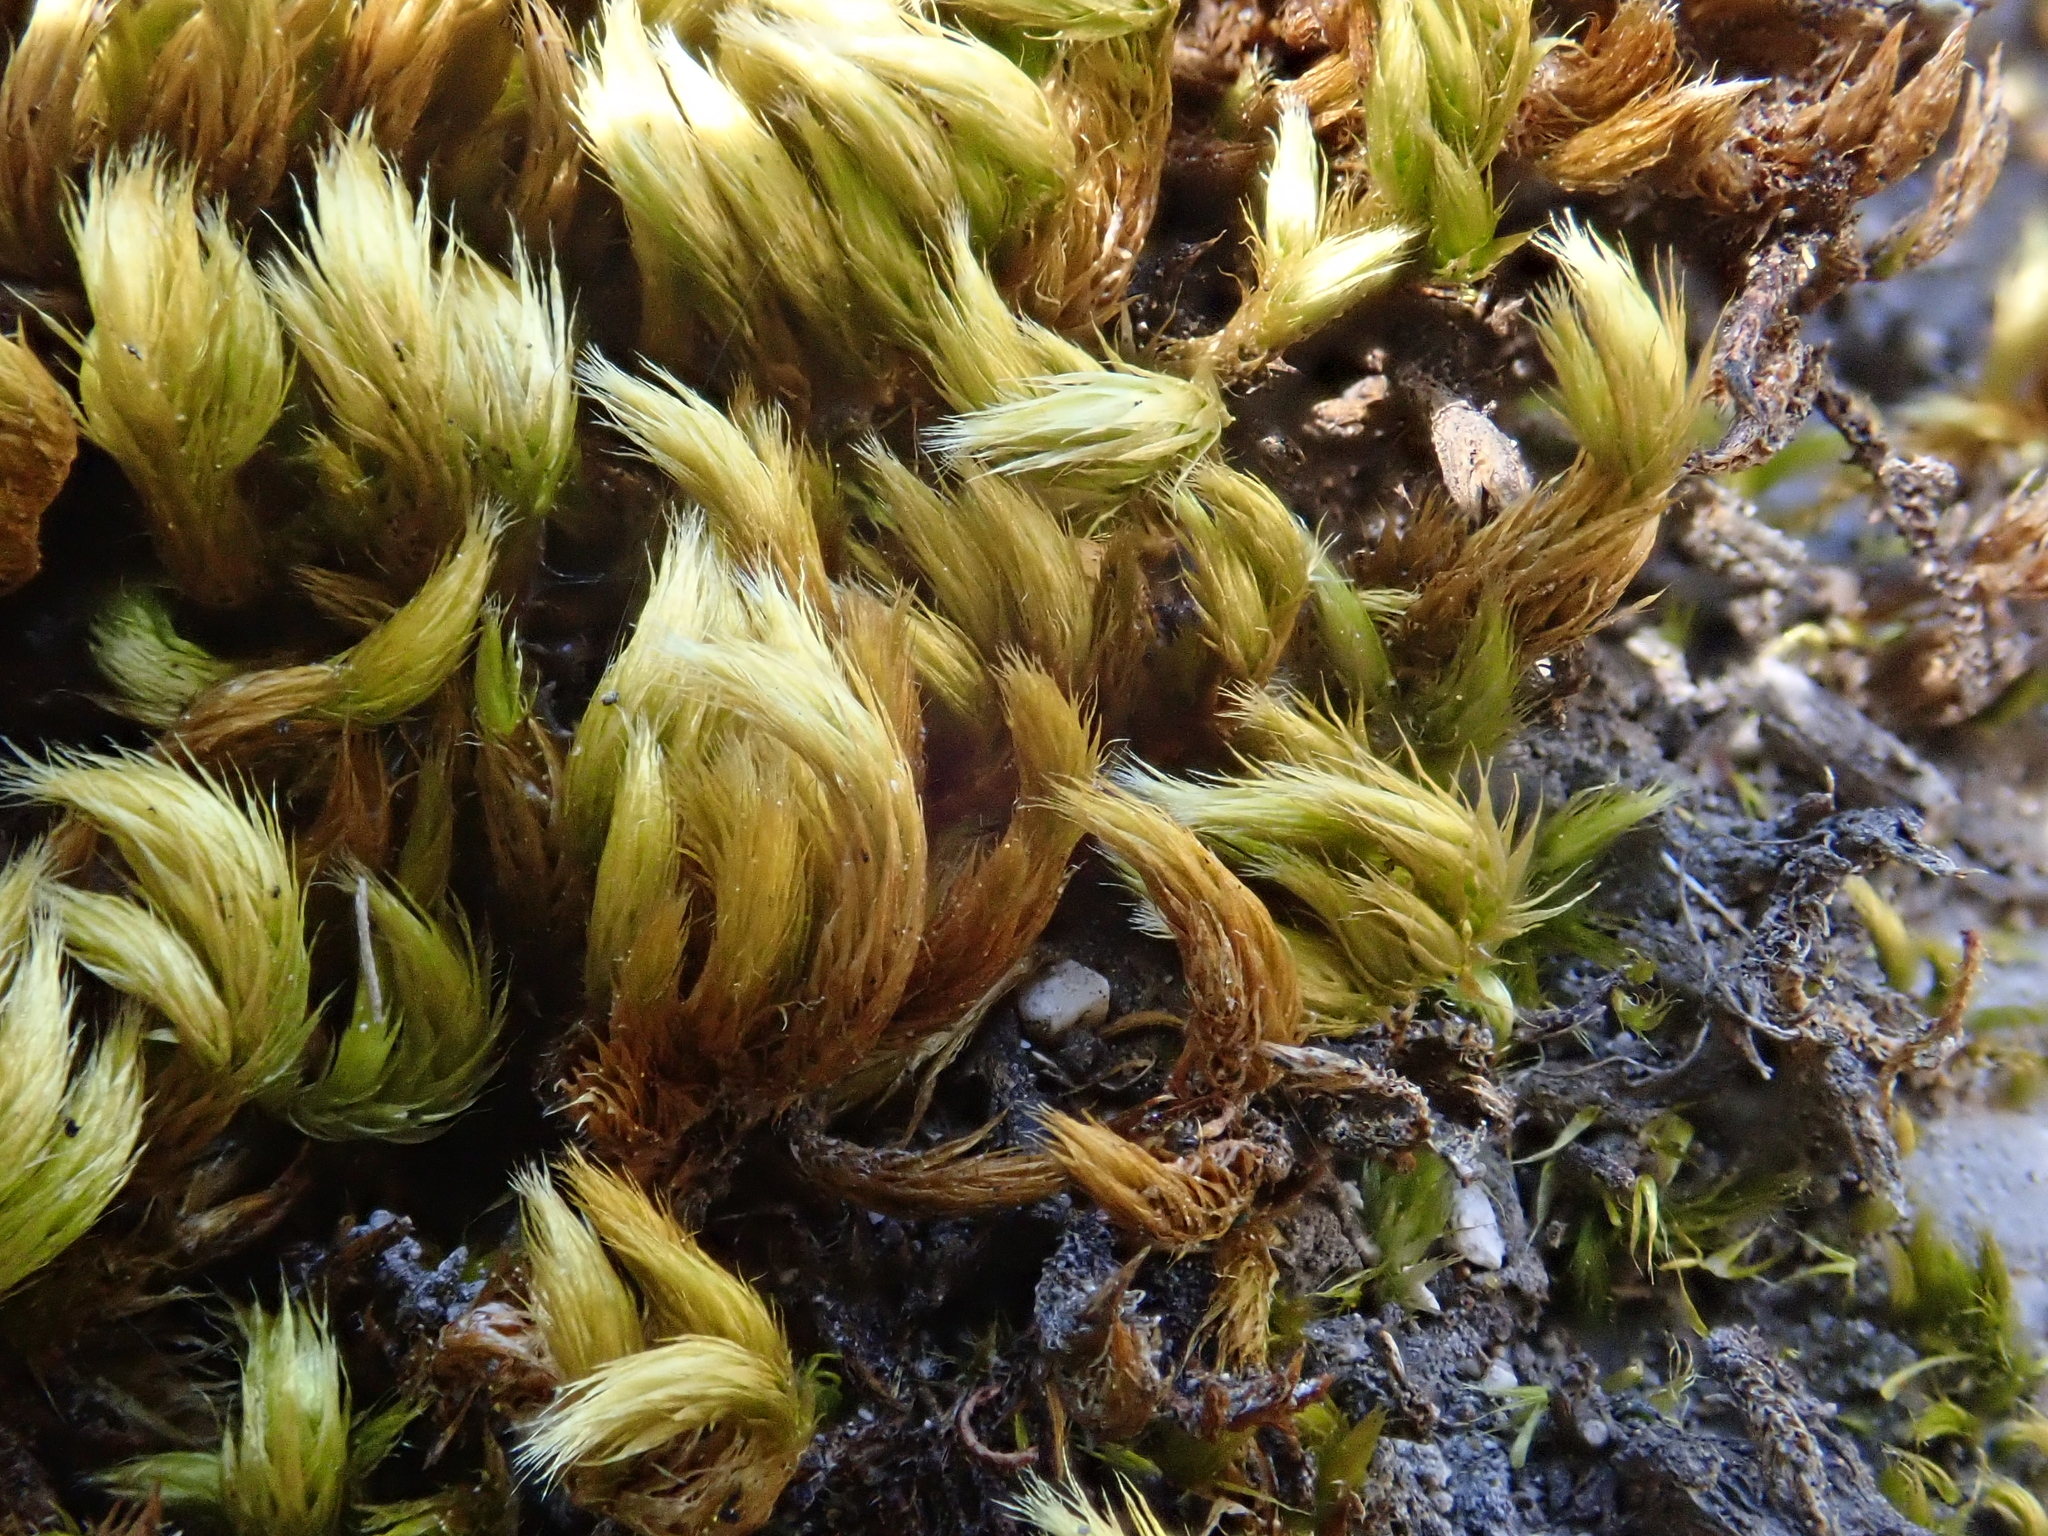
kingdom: Plantae
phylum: Bryophyta
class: Bryopsida
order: Hypnales
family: Brachytheciaceae
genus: Homalothecium
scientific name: Homalothecium sericeum
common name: Silky wall feather-moss
